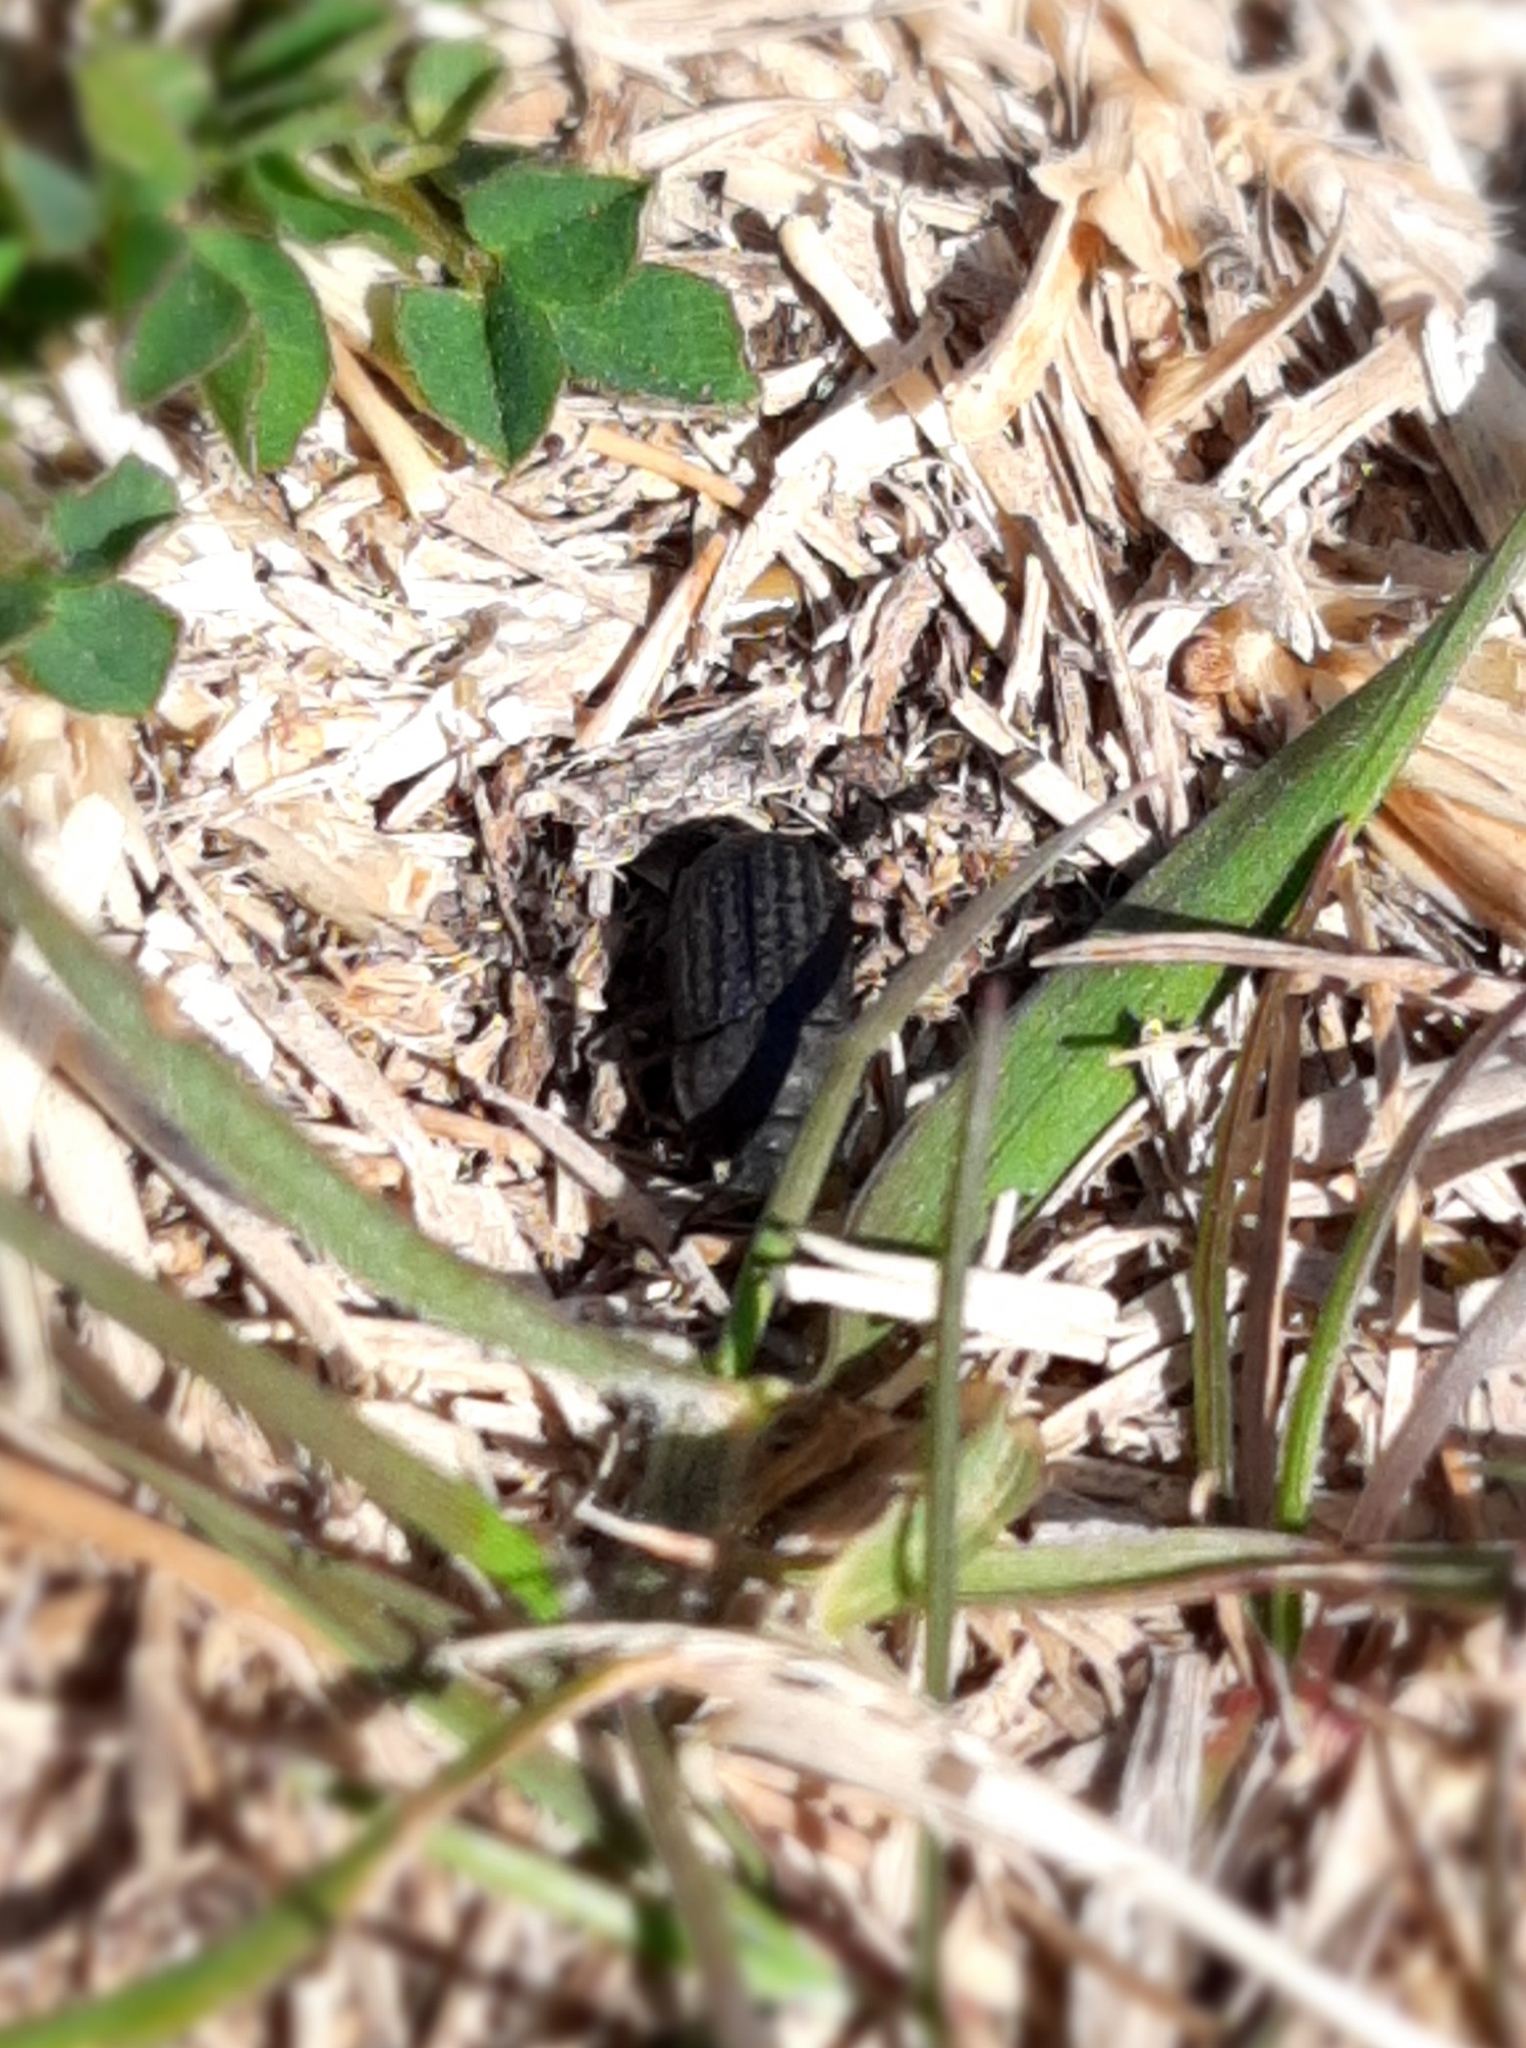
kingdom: Animalia
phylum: Arthropoda
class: Insecta
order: Coleoptera
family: Tenebrionidae
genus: Opatrum
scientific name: Opatrum sabulosum
